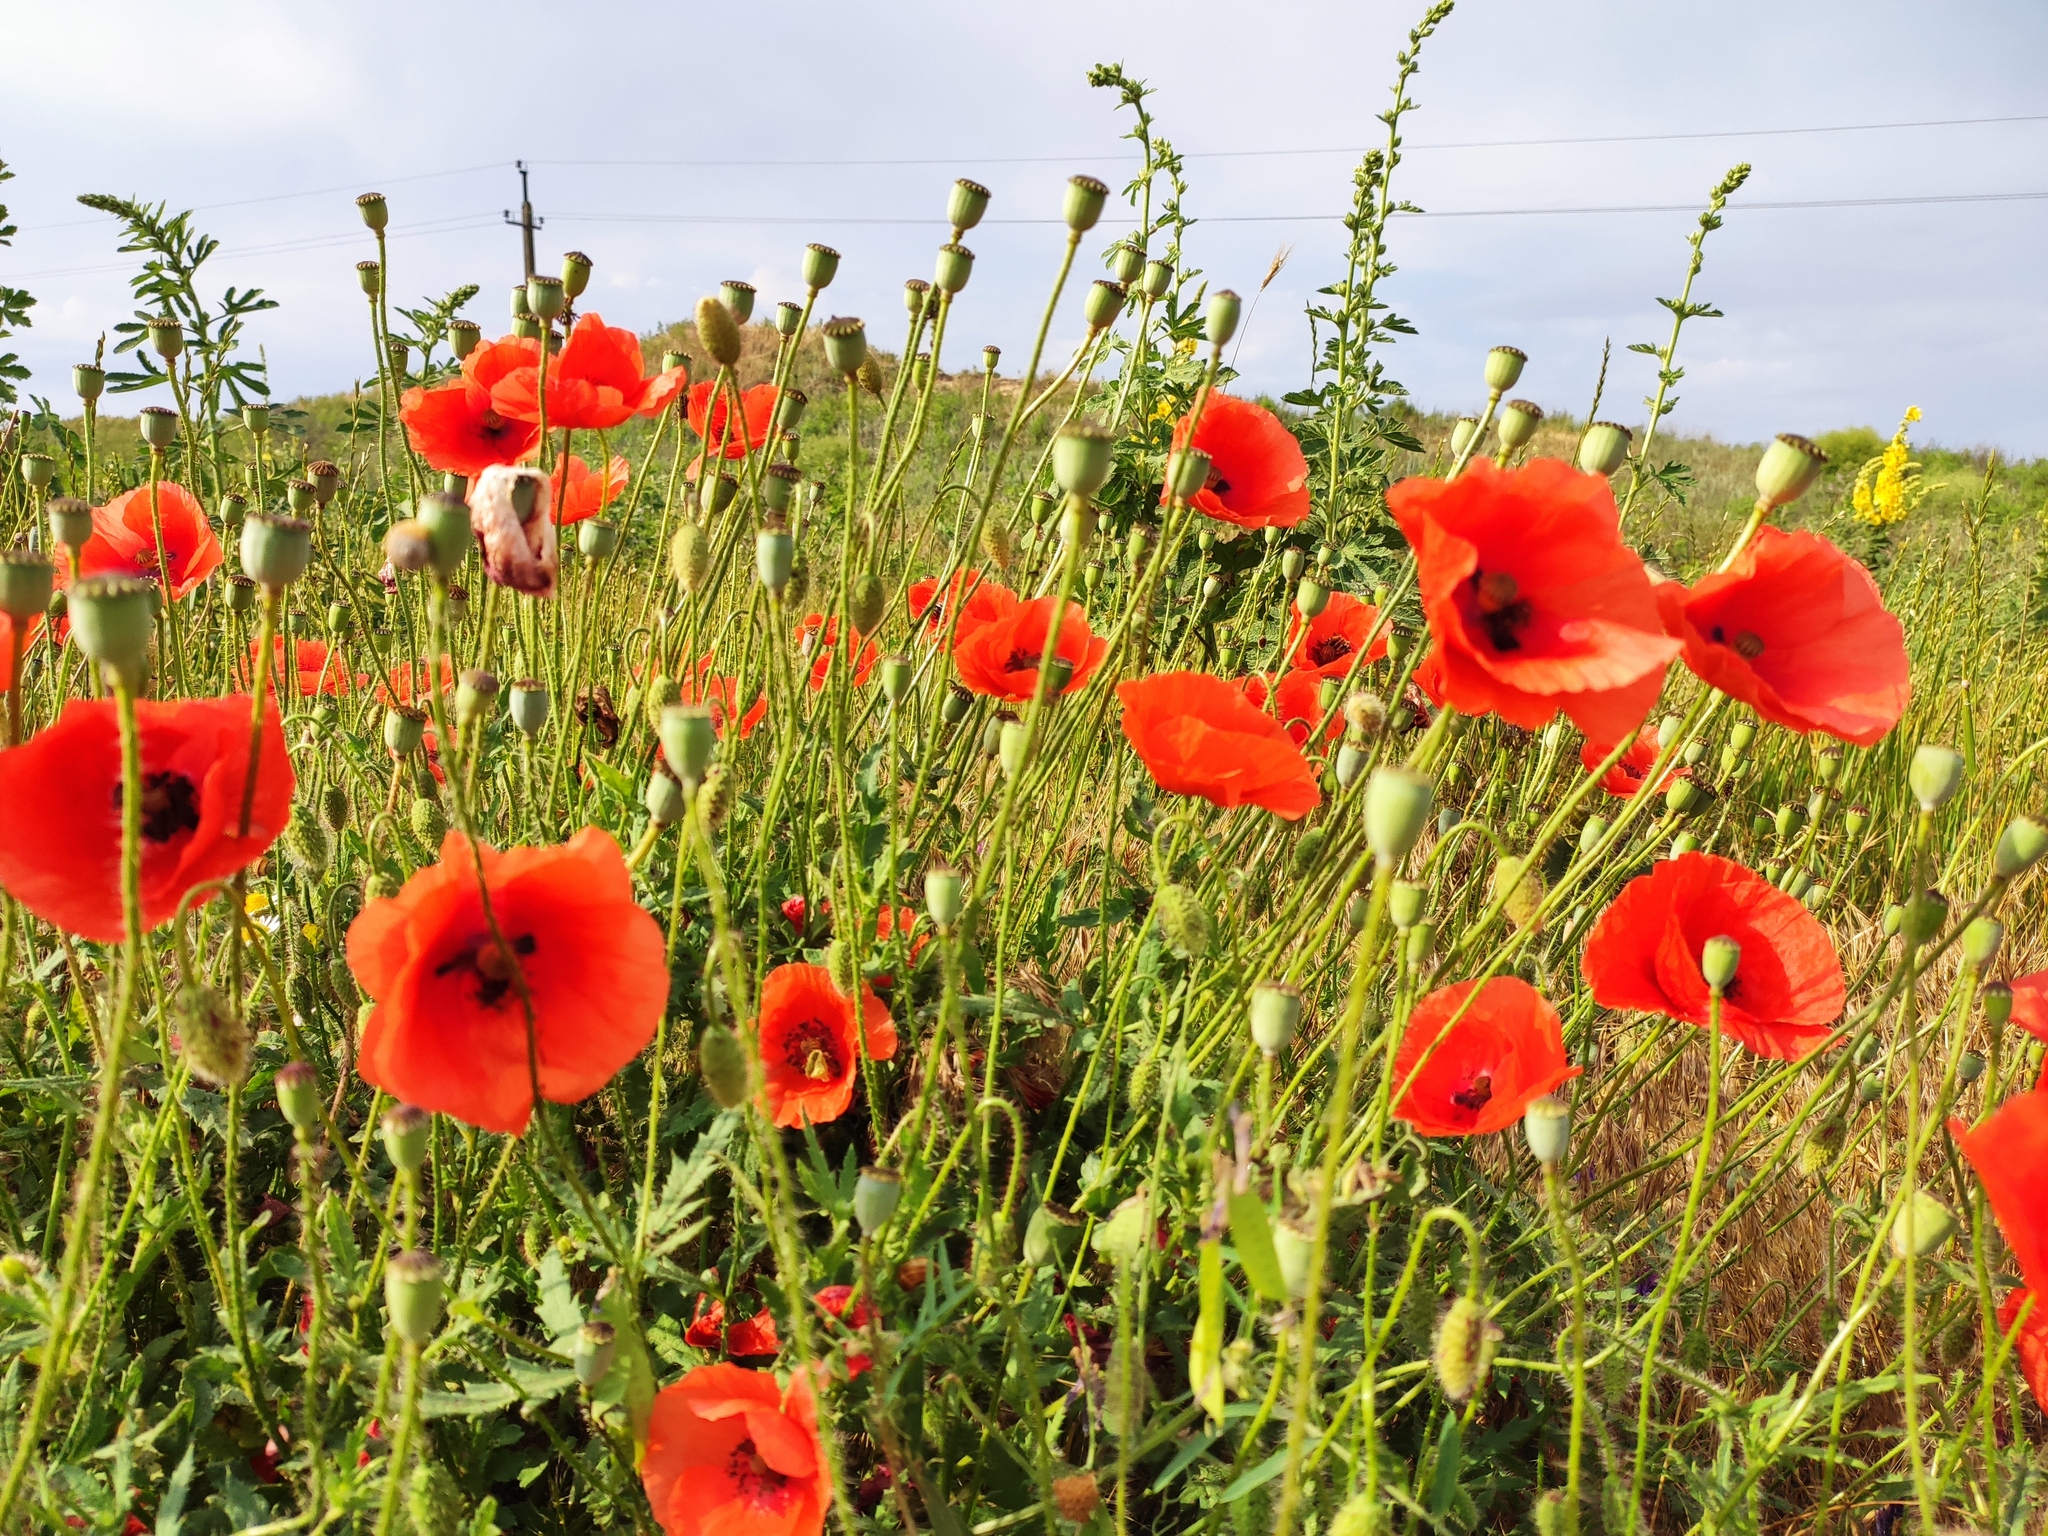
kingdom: Plantae
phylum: Tracheophyta
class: Magnoliopsida
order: Ranunculales
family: Papaveraceae
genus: Papaver
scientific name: Papaver rhoeas
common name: Corn poppy
